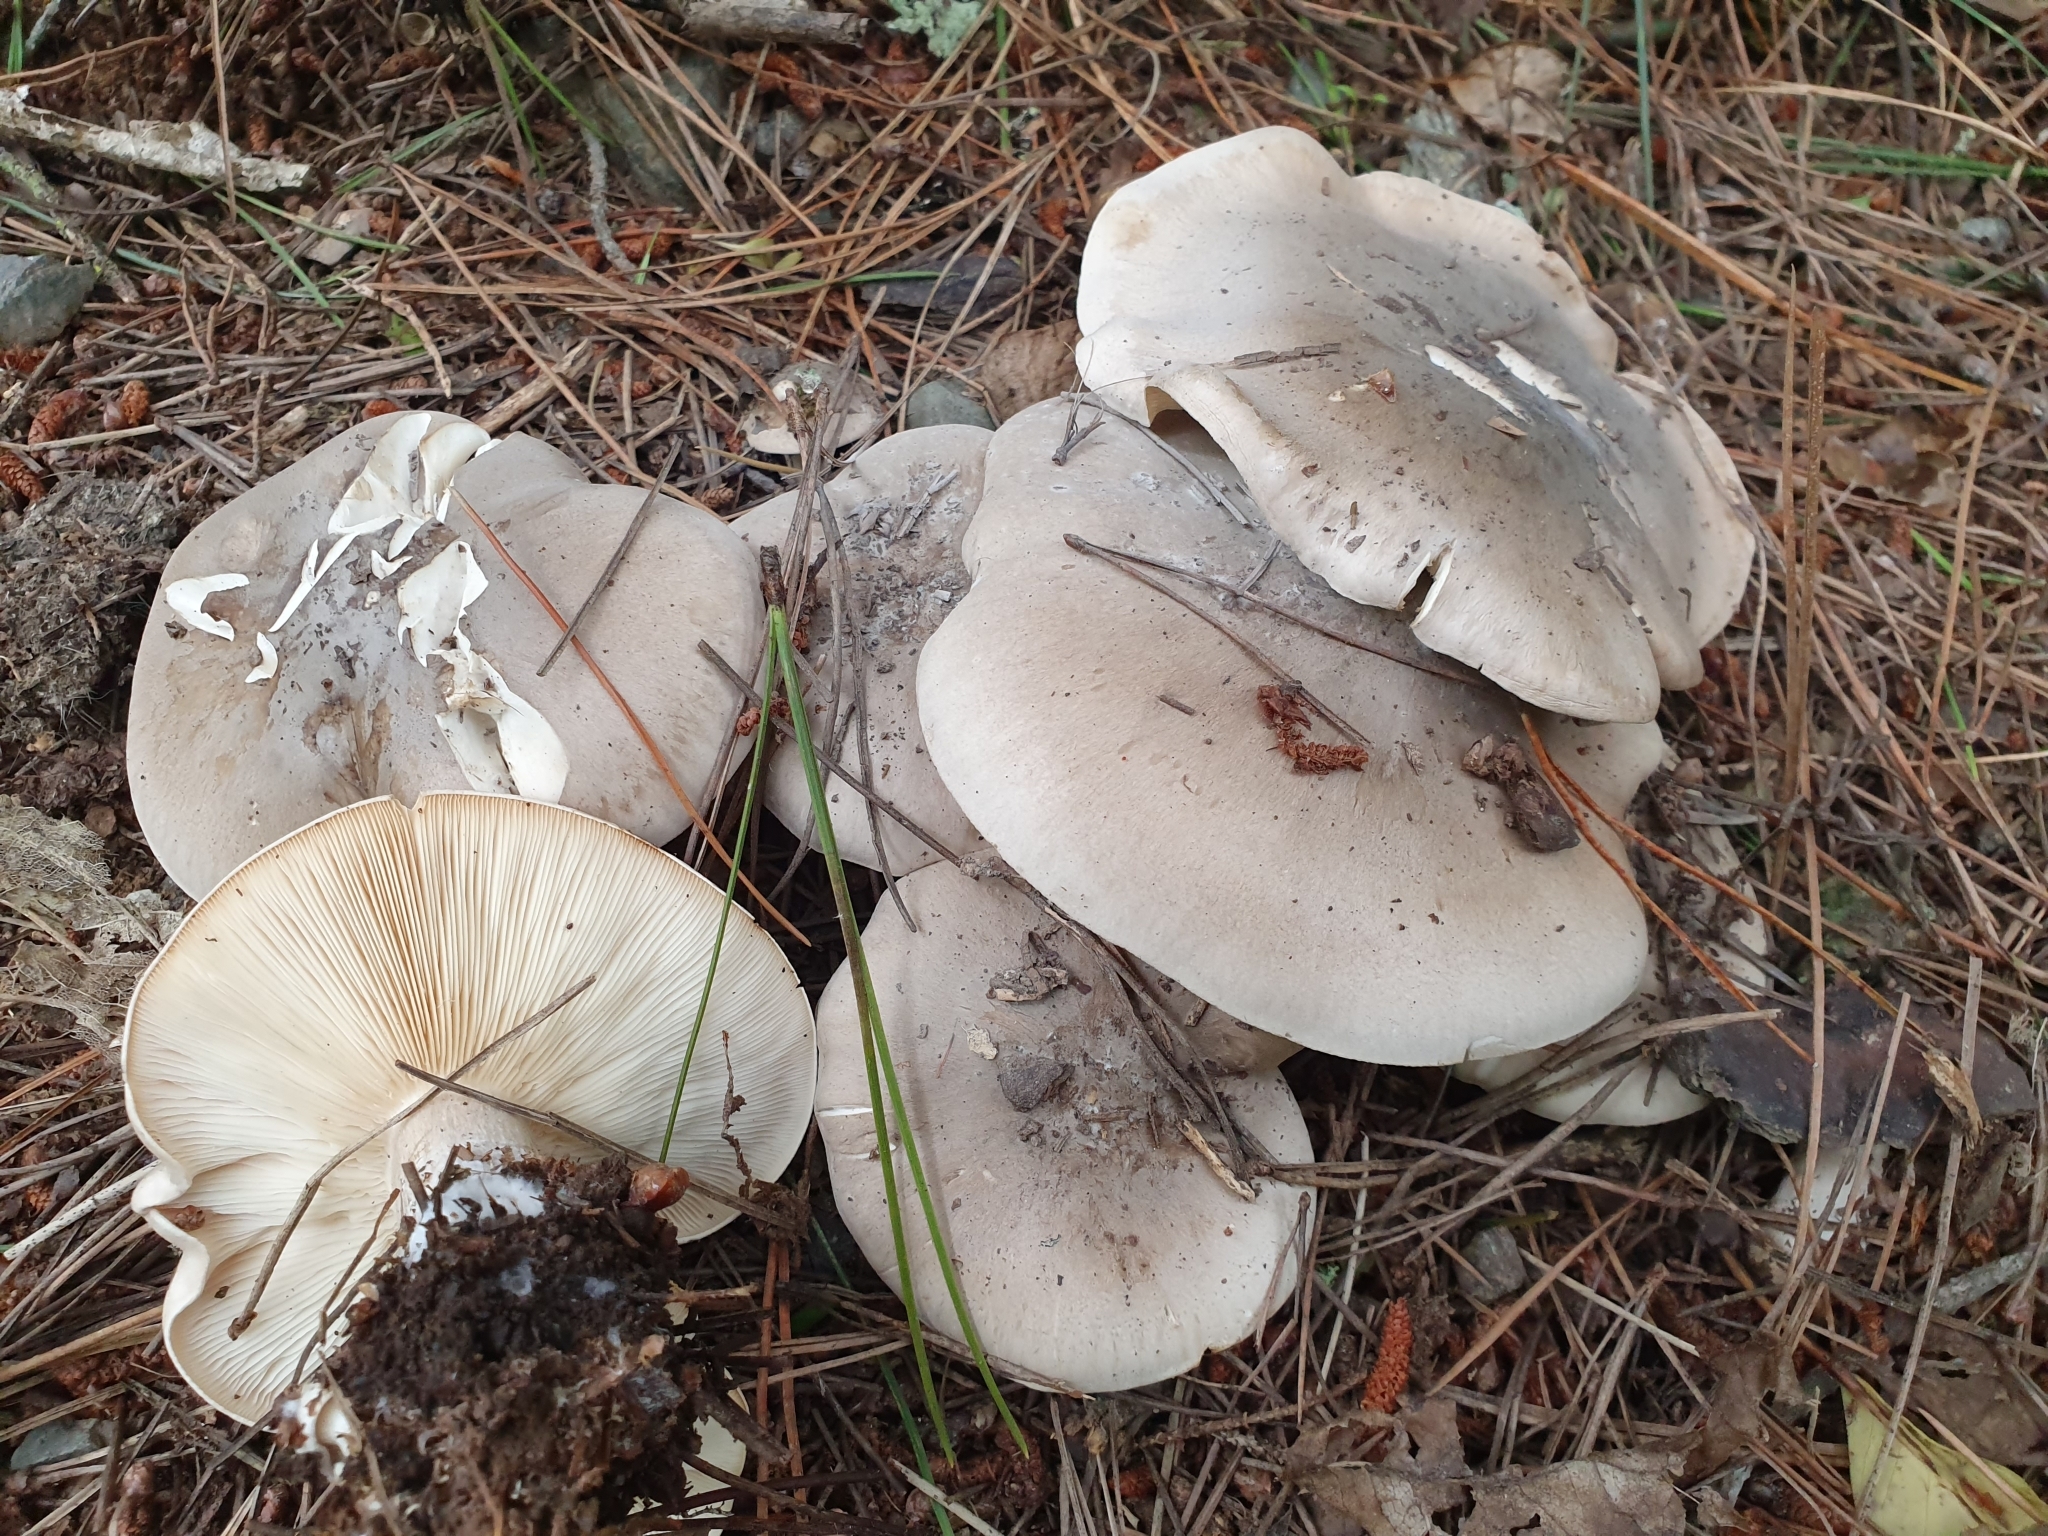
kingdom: Fungi
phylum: Basidiomycota
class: Agaricomycetes
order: Agaricales
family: Tricholomataceae
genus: Clitocybe
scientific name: Clitocybe nebularis
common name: Clouded agaric
